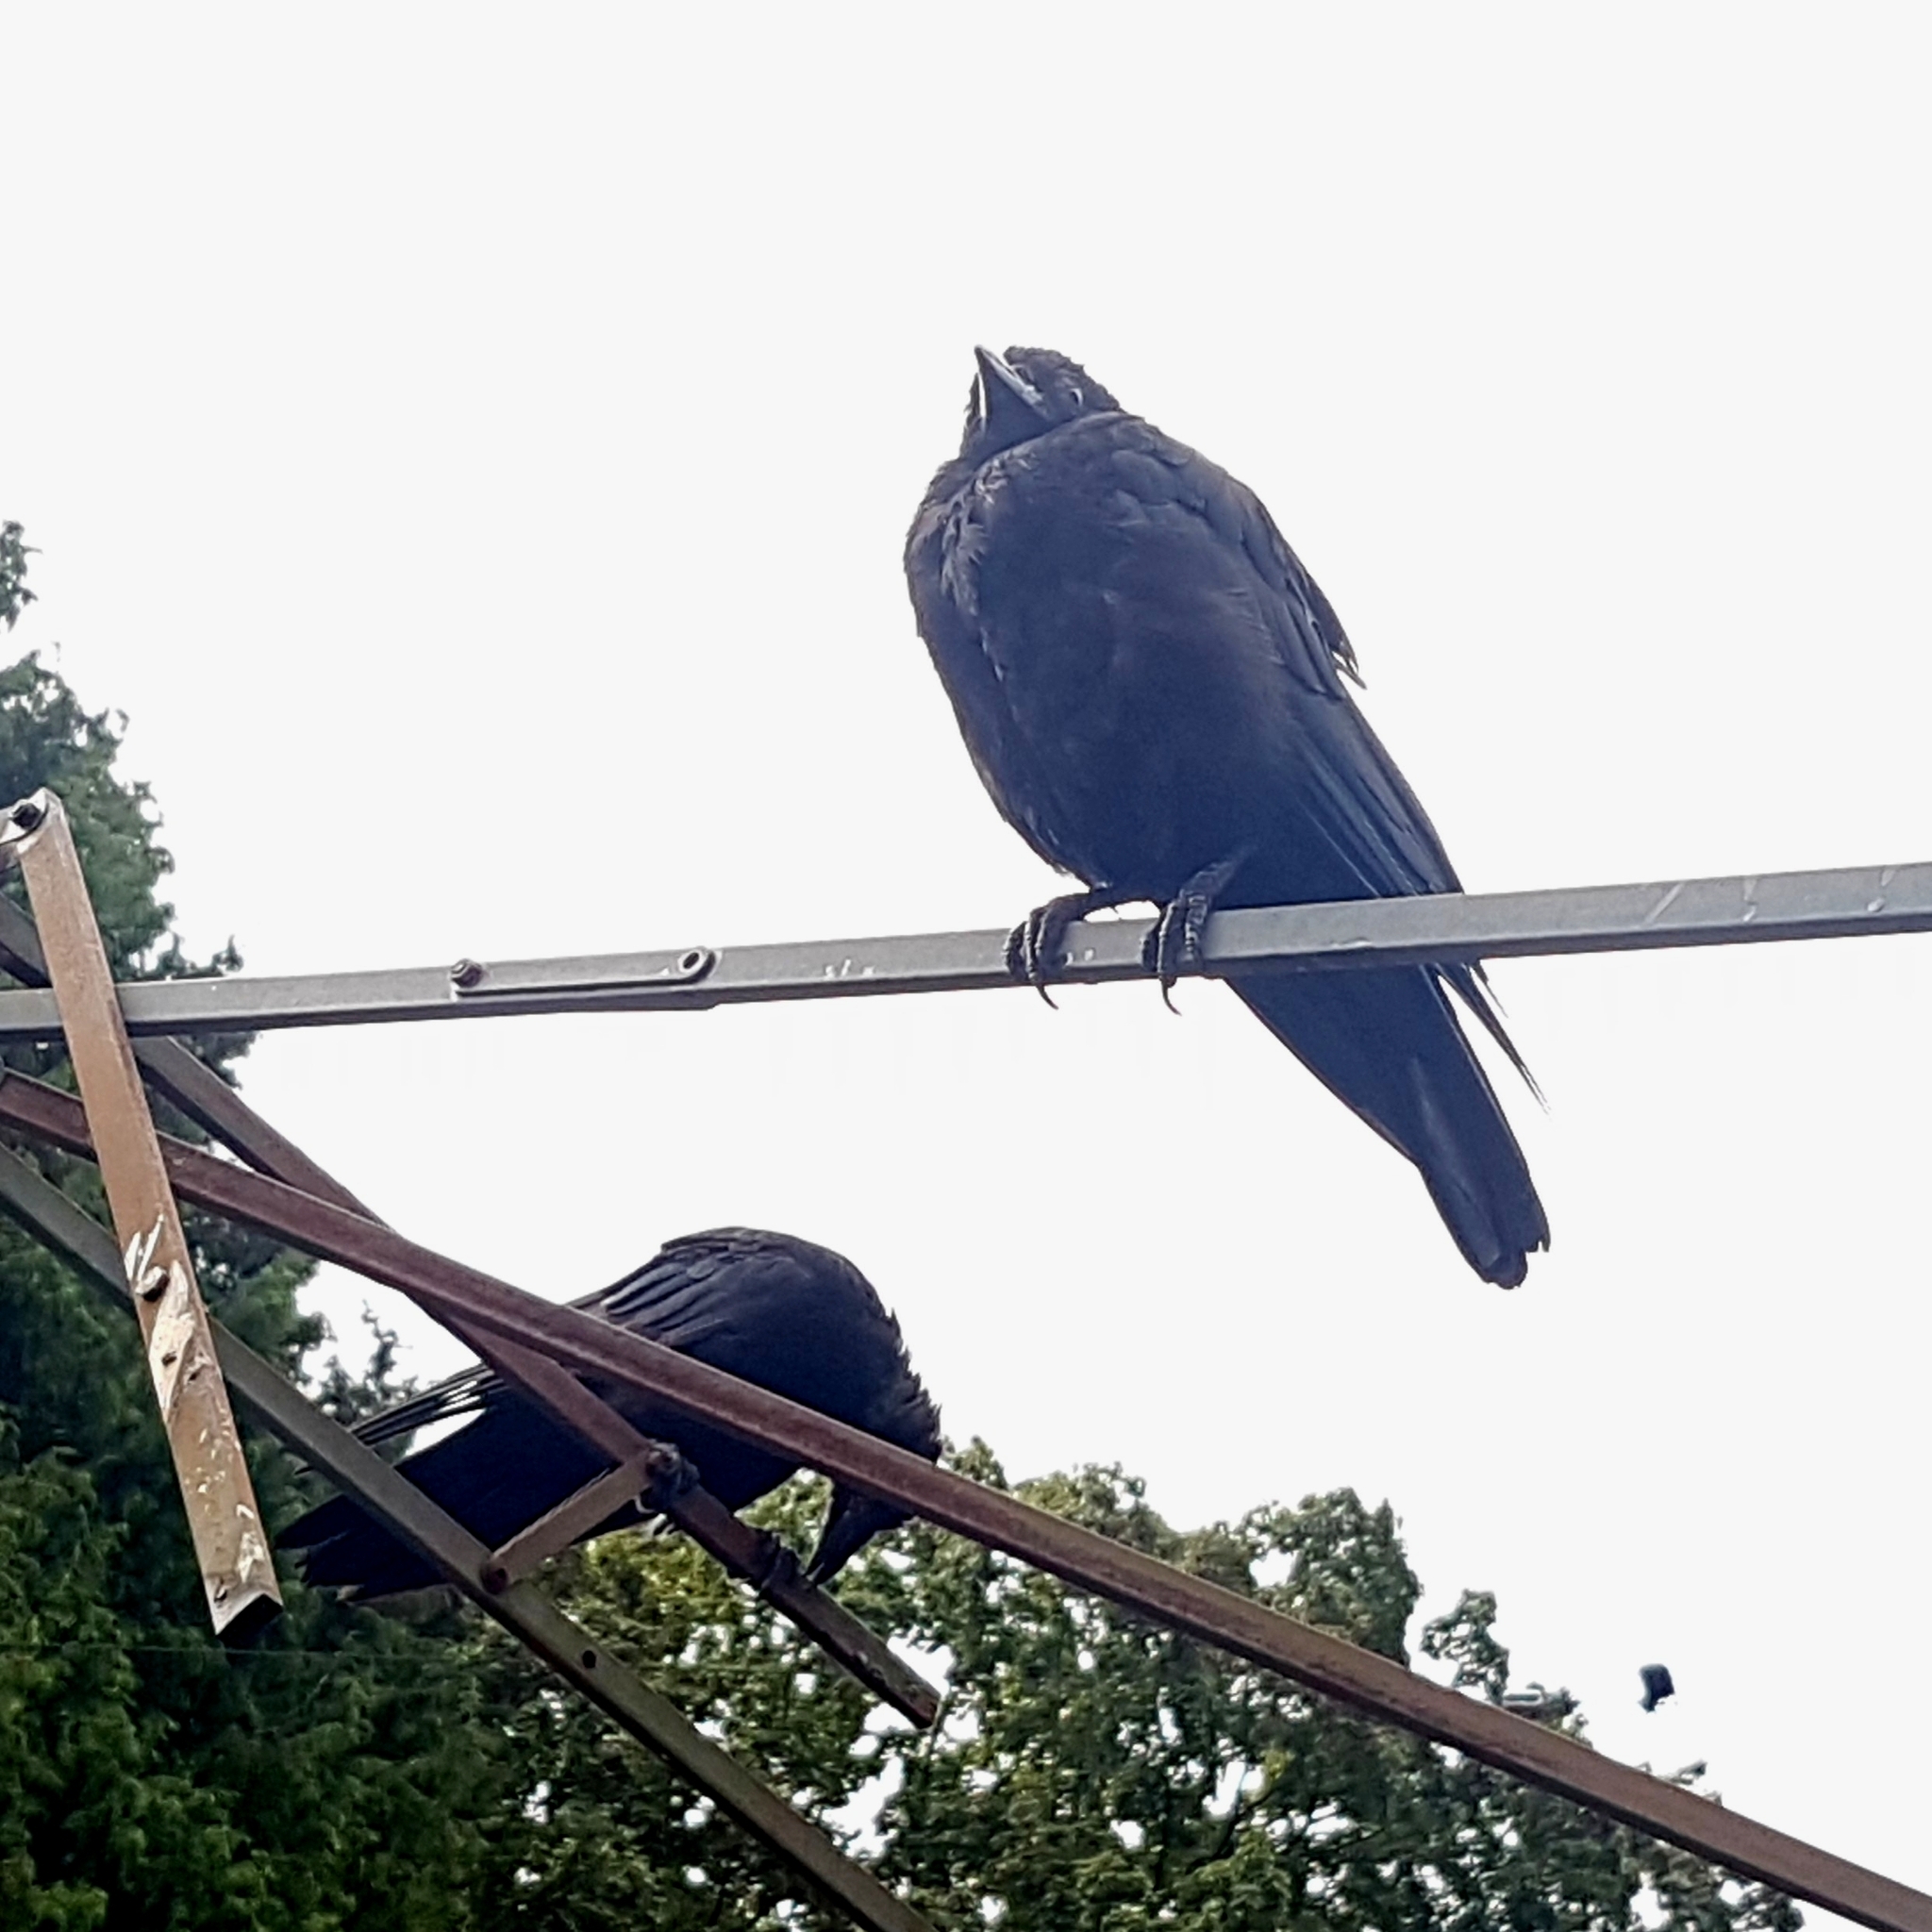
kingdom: Animalia
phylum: Chordata
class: Aves
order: Passeriformes
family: Corvidae
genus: Corvus
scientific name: Corvus brachyrhynchos
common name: American crow
